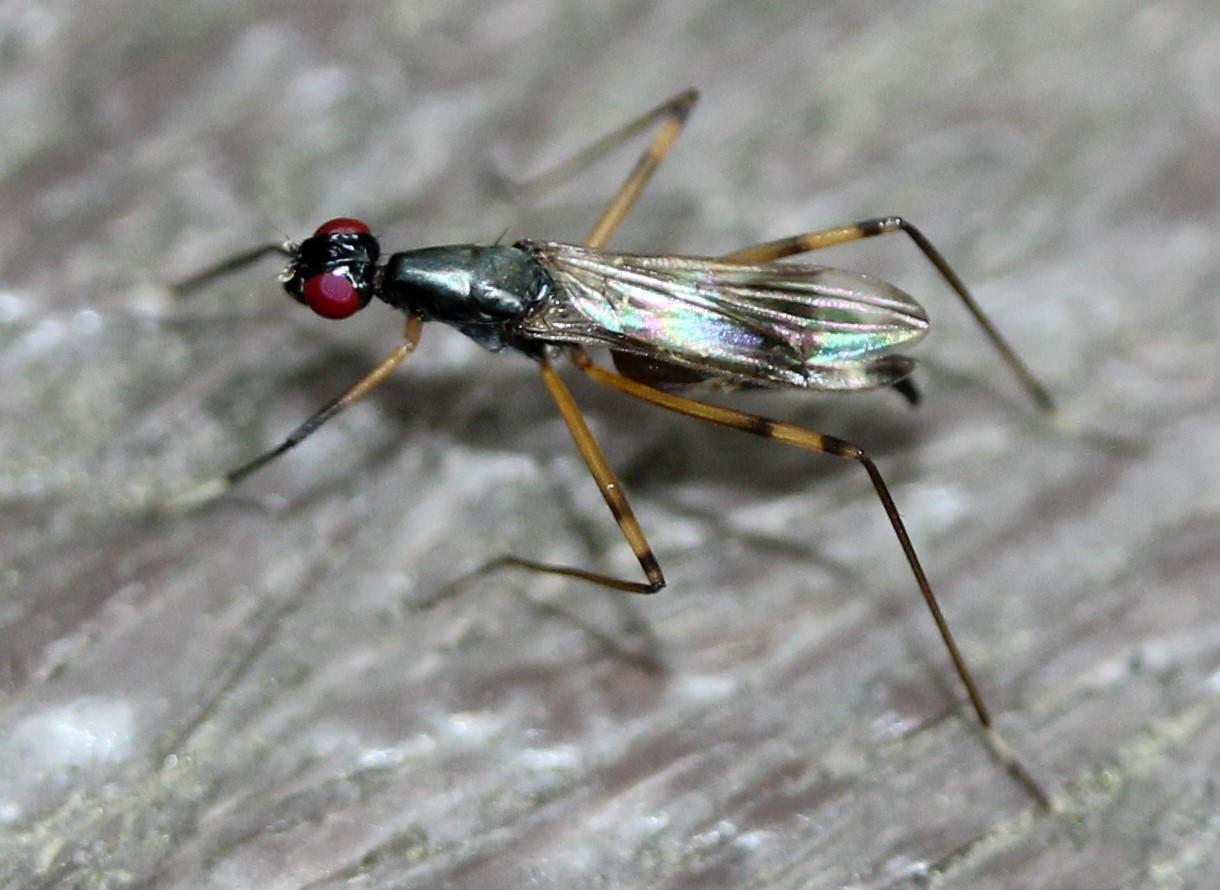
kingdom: Animalia
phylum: Arthropoda
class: Insecta
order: Diptera
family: Micropezidae
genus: Rainieria
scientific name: Rainieria antennaepes
